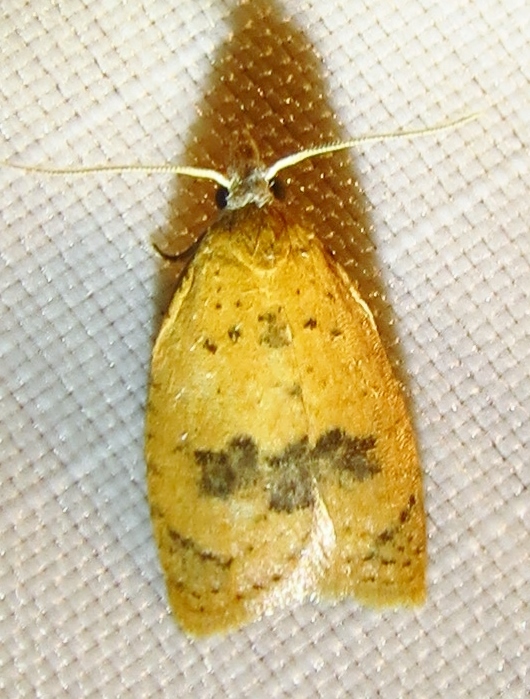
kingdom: Animalia
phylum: Arthropoda
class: Insecta
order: Lepidoptera
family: Tortricidae
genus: Sparganothoides
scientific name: Sparganothoides lentiginosana
